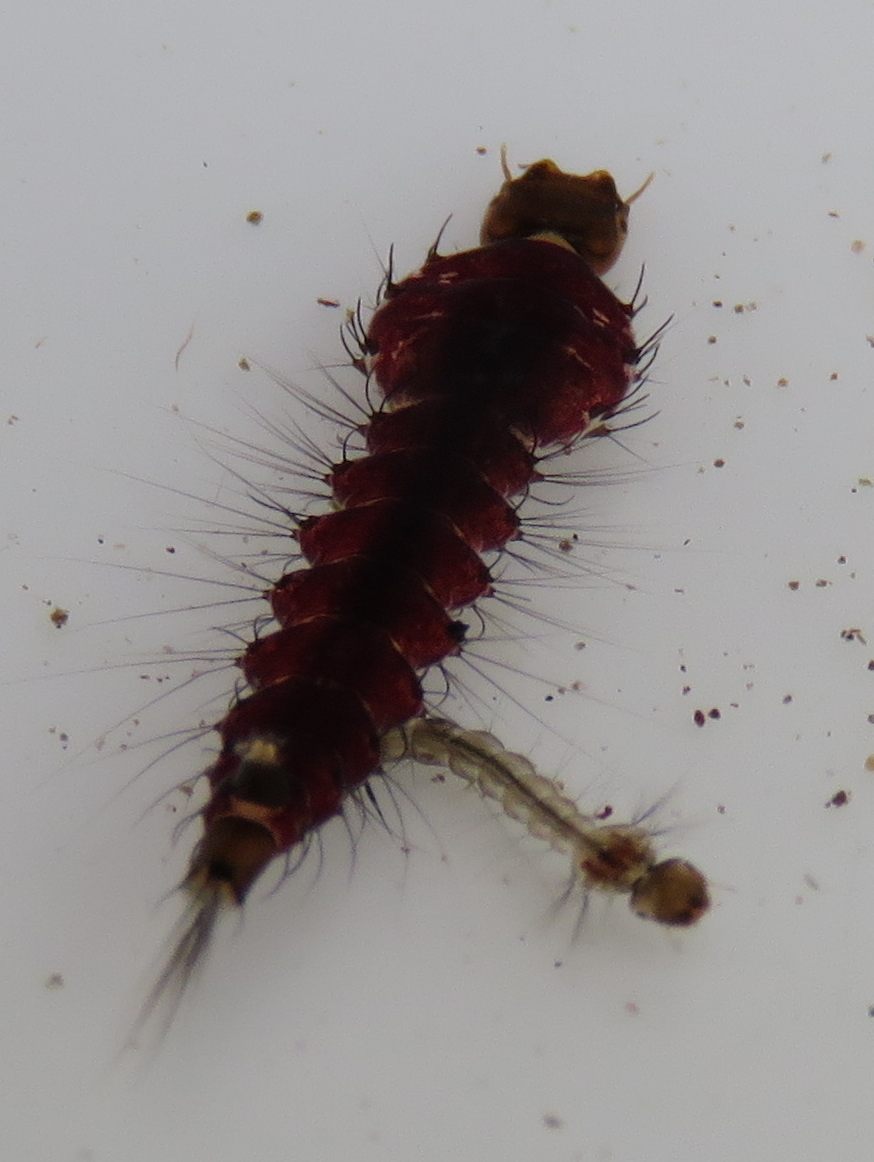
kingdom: Animalia
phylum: Arthropoda
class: Insecta
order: Diptera
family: Culicidae
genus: Toxorhynchites
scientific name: Toxorhynchites speciosus
